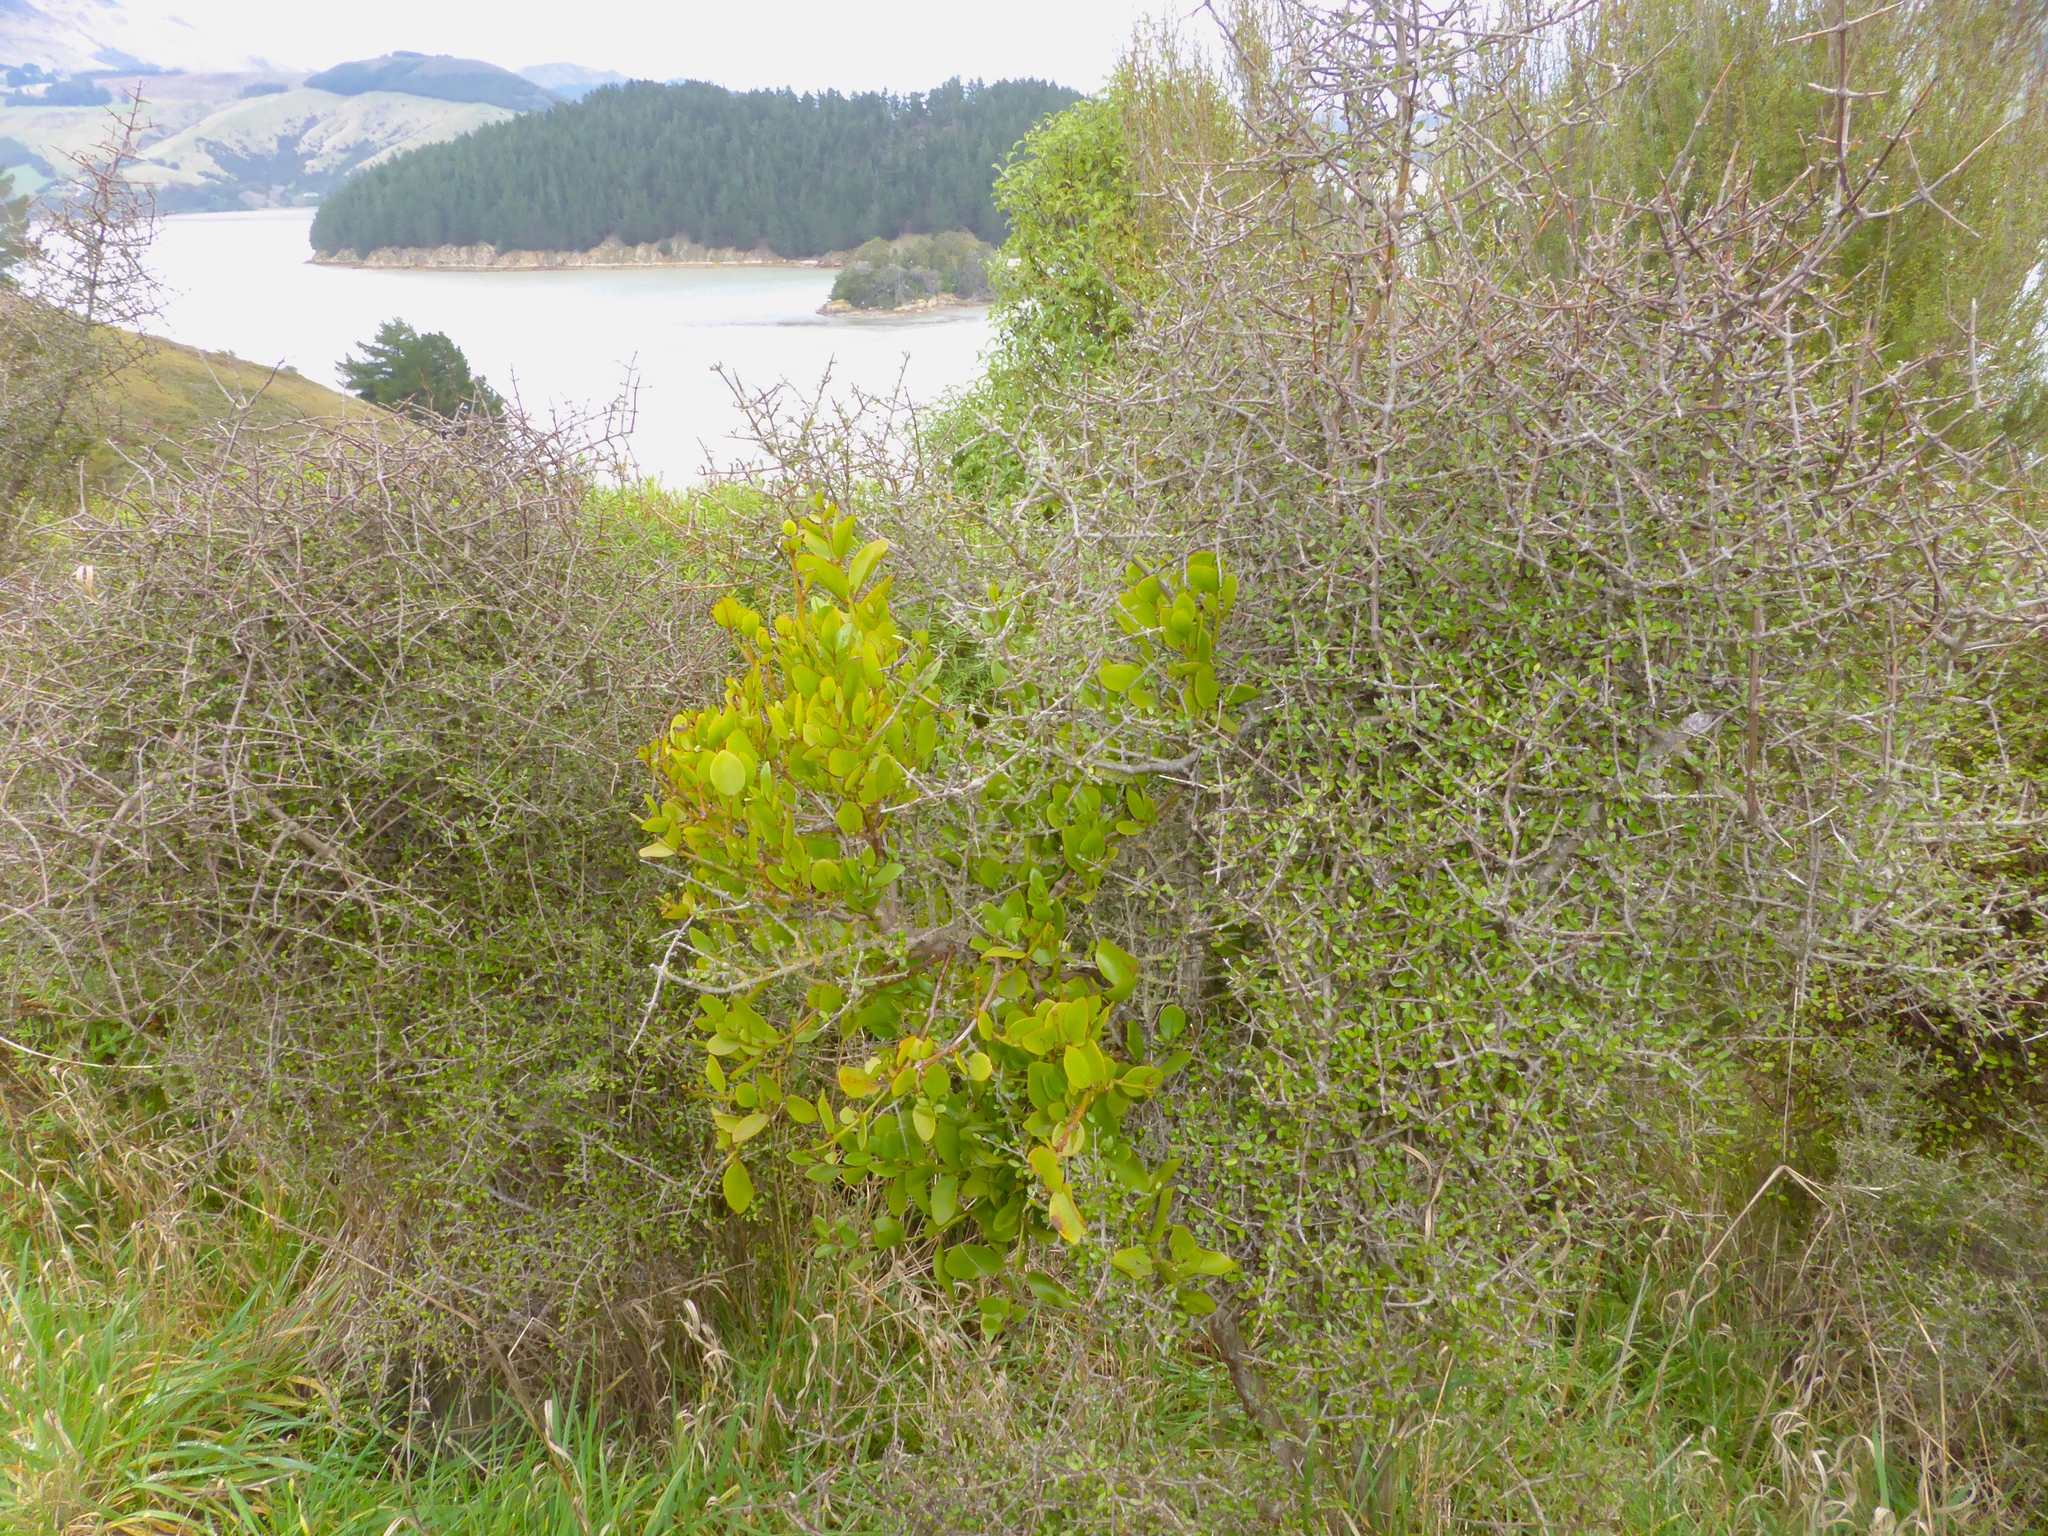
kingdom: Plantae
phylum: Tracheophyta
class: Magnoliopsida
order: Santalales
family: Loranthaceae
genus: Ileostylus
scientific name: Ileostylus micranthus
